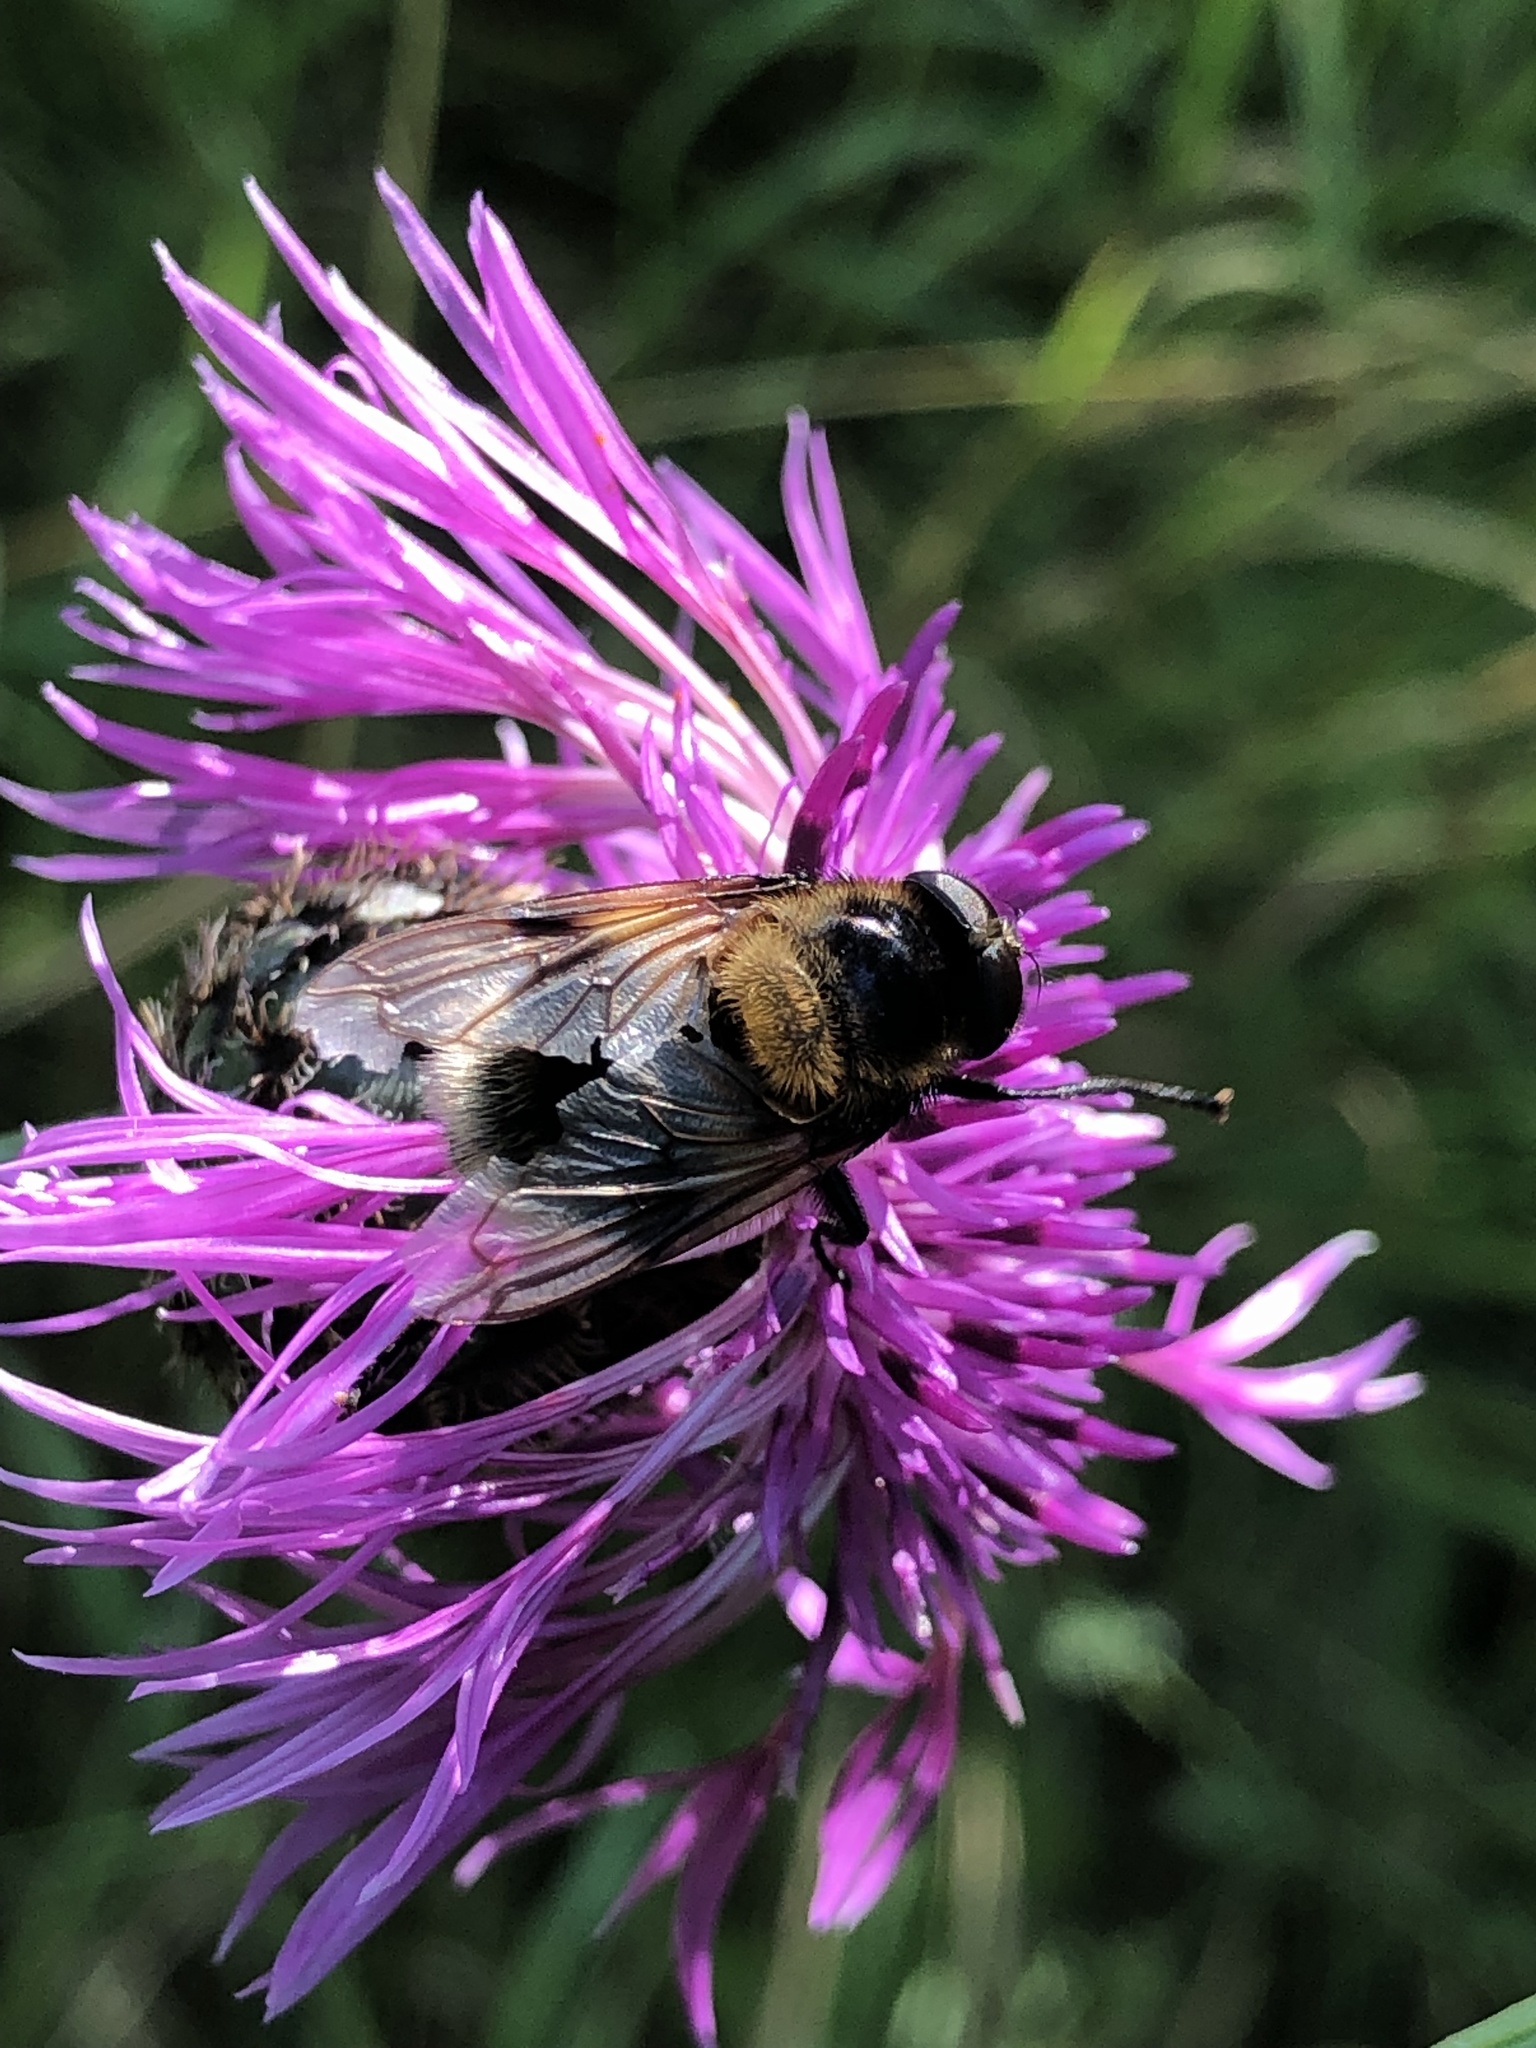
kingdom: Animalia
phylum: Arthropoda
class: Insecta
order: Diptera
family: Syrphidae
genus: Volucella
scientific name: Volucella bombylans
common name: Bumble bee hover fly
